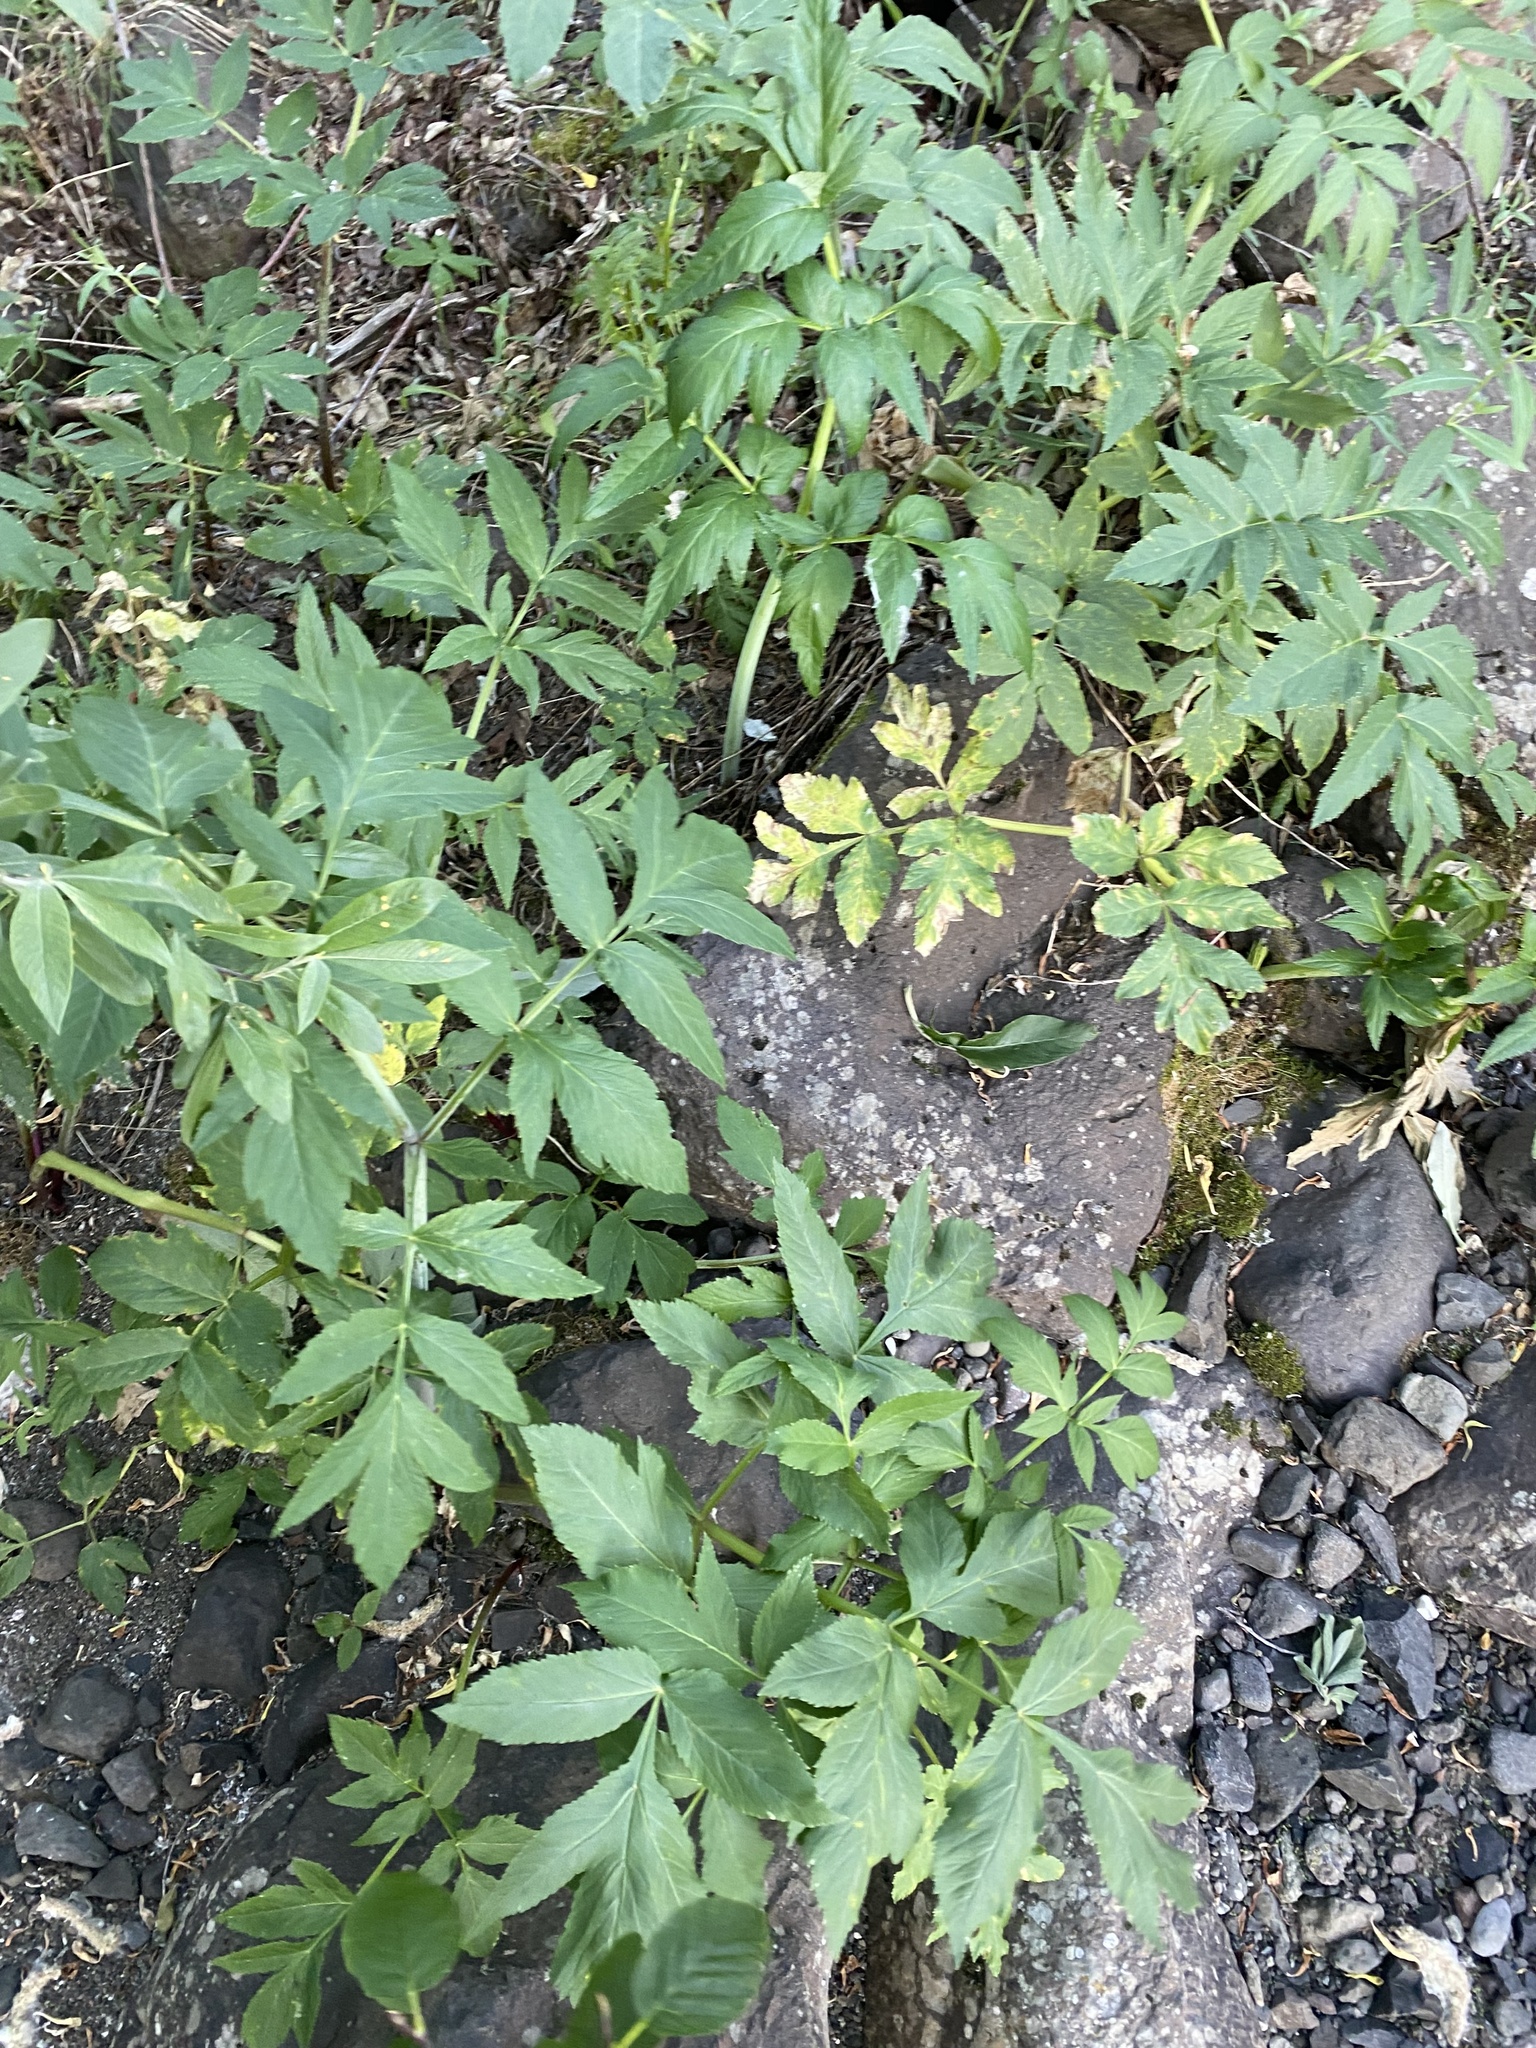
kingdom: Plantae
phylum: Tracheophyta
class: Magnoliopsida
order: Apiales
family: Apiaceae
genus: Angelica
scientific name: Angelica decurrens
